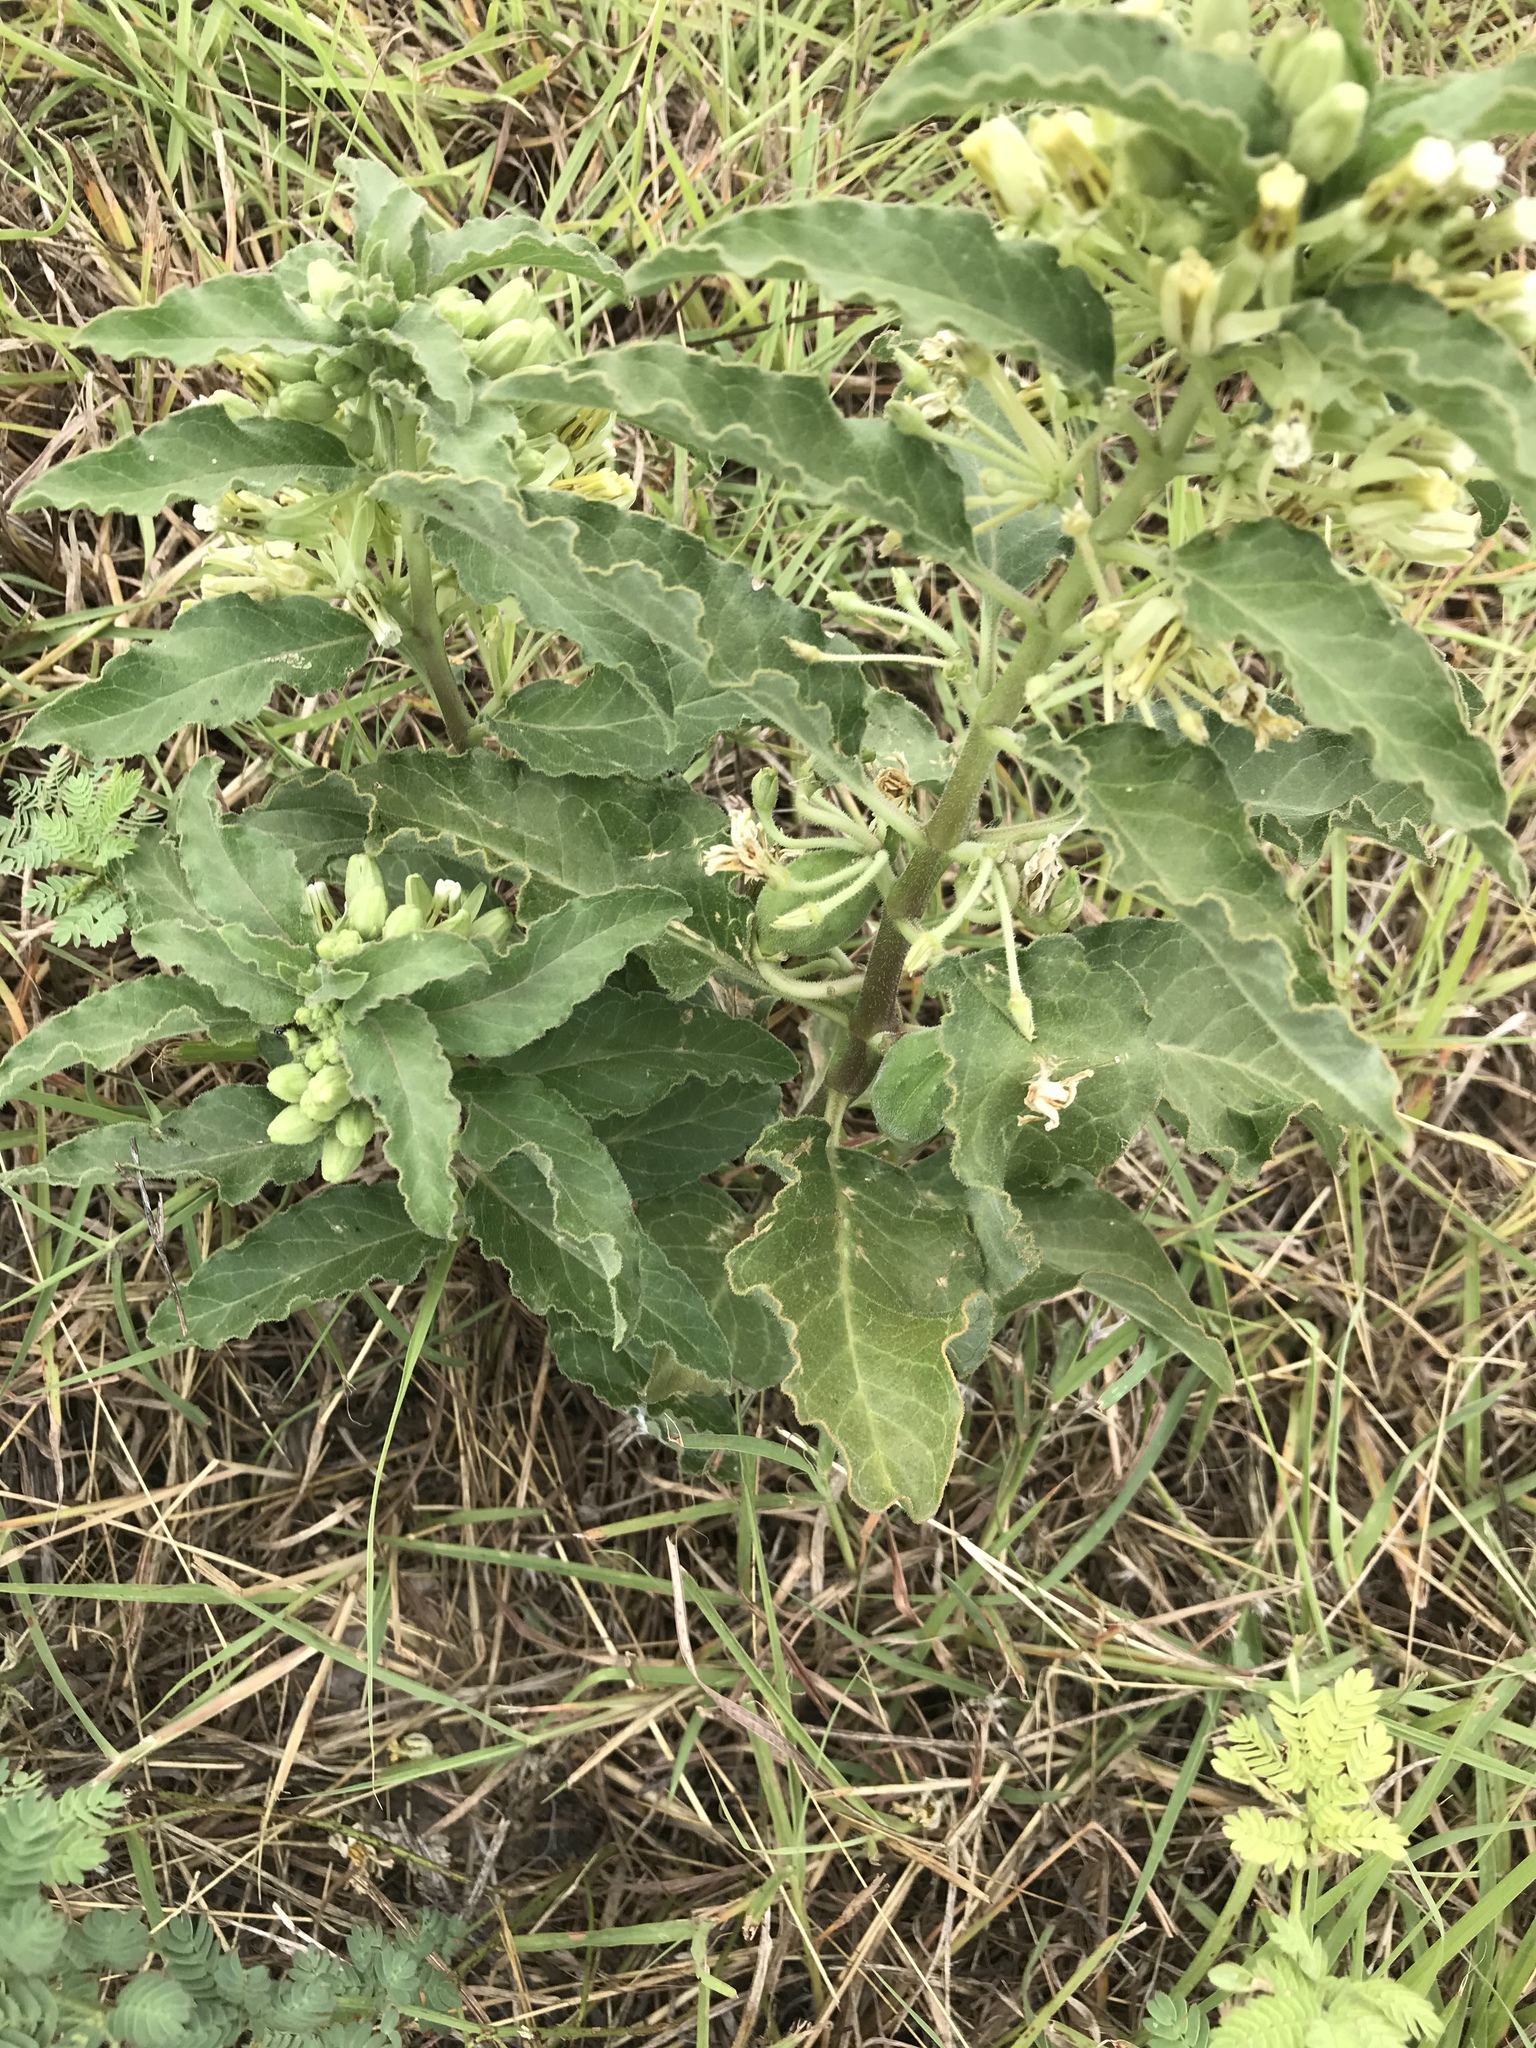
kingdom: Plantae
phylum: Tracheophyta
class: Magnoliopsida
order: Gentianales
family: Apocynaceae
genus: Asclepias
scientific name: Asclepias oenotheroides
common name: Zizotes milkweed
